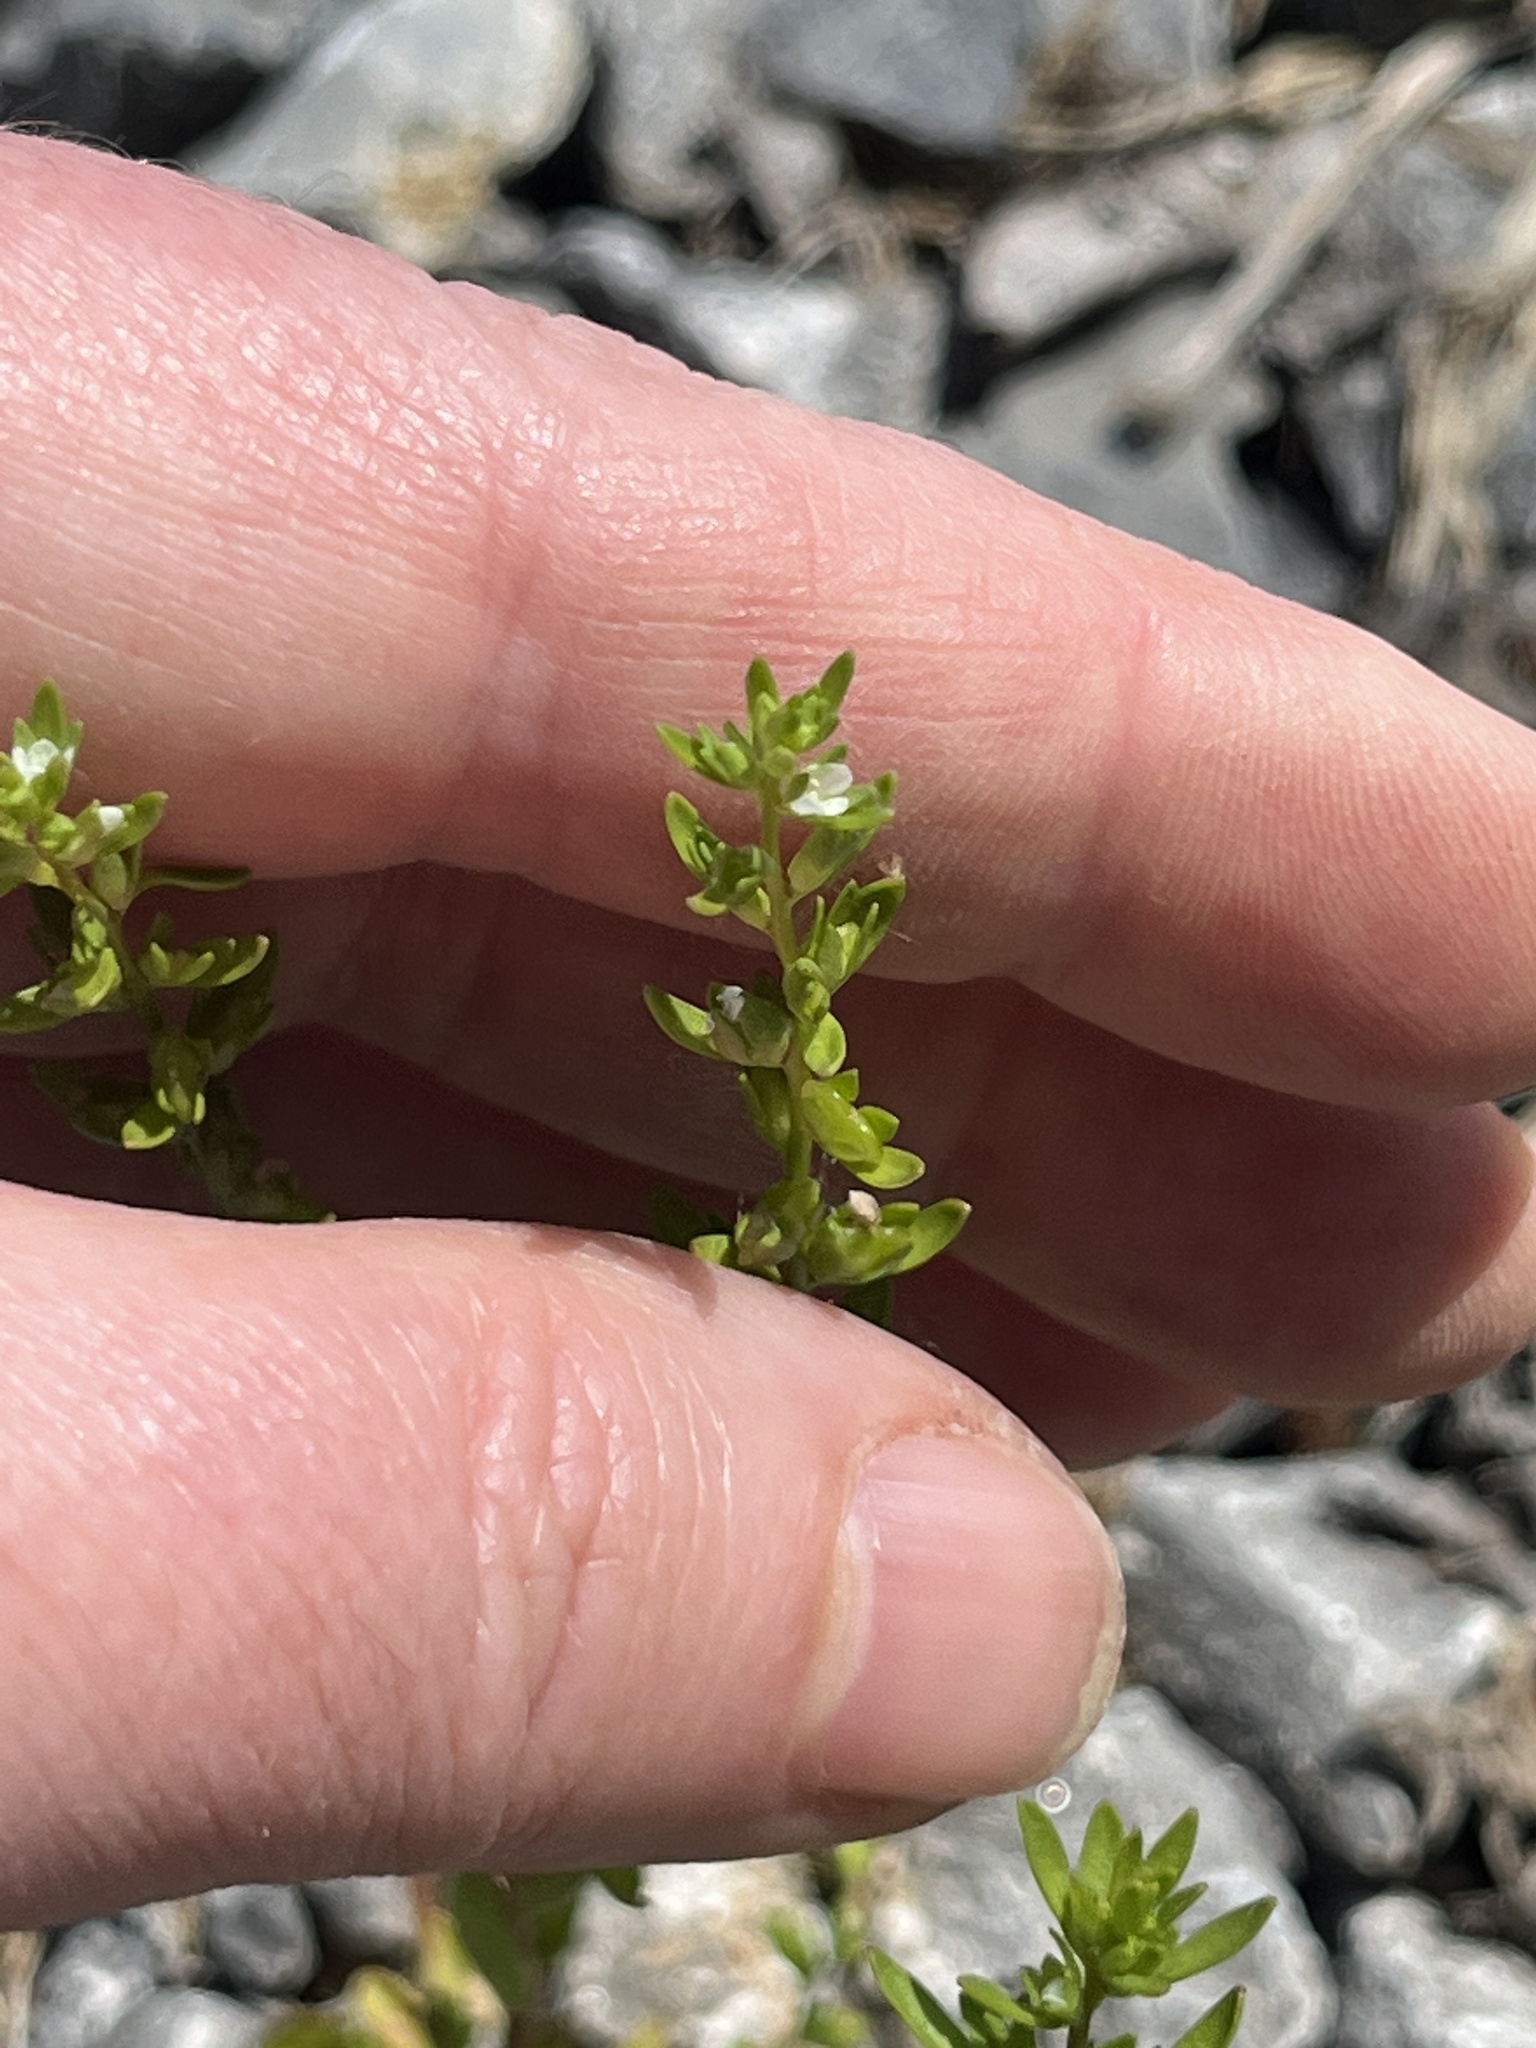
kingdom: Plantae
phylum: Tracheophyta
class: Magnoliopsida
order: Lamiales
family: Plantaginaceae
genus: Veronica
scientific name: Veronica peregrina
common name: Neckweed
